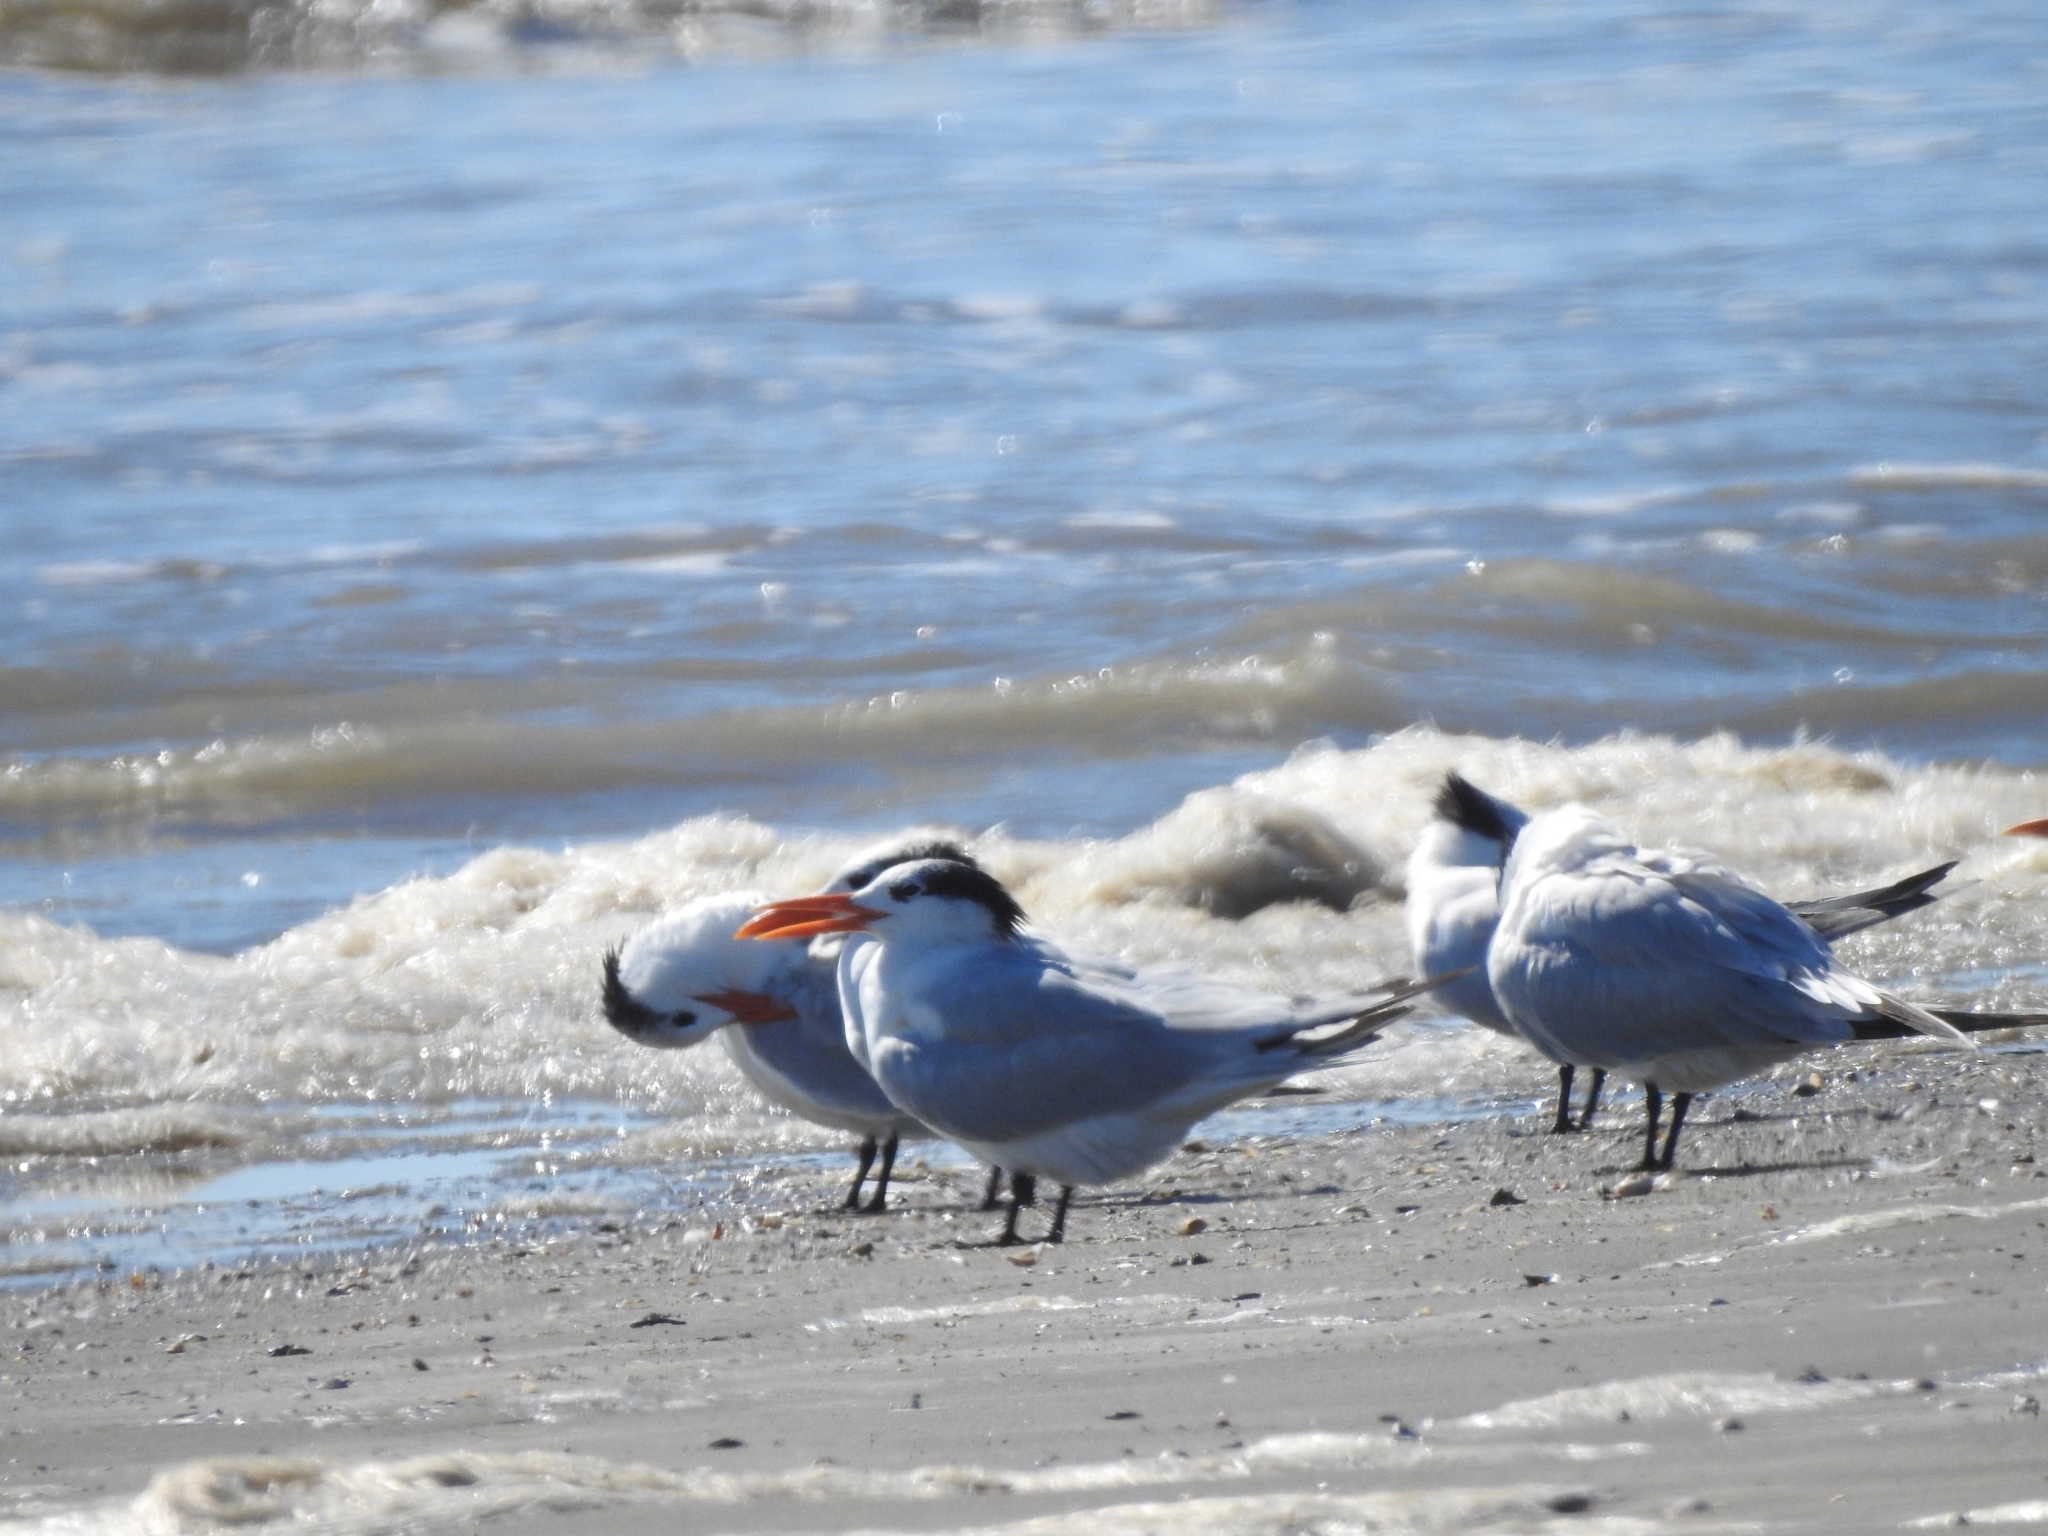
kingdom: Animalia
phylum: Chordata
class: Aves
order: Charadriiformes
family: Laridae
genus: Thalasseus
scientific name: Thalasseus maximus
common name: Royal tern
